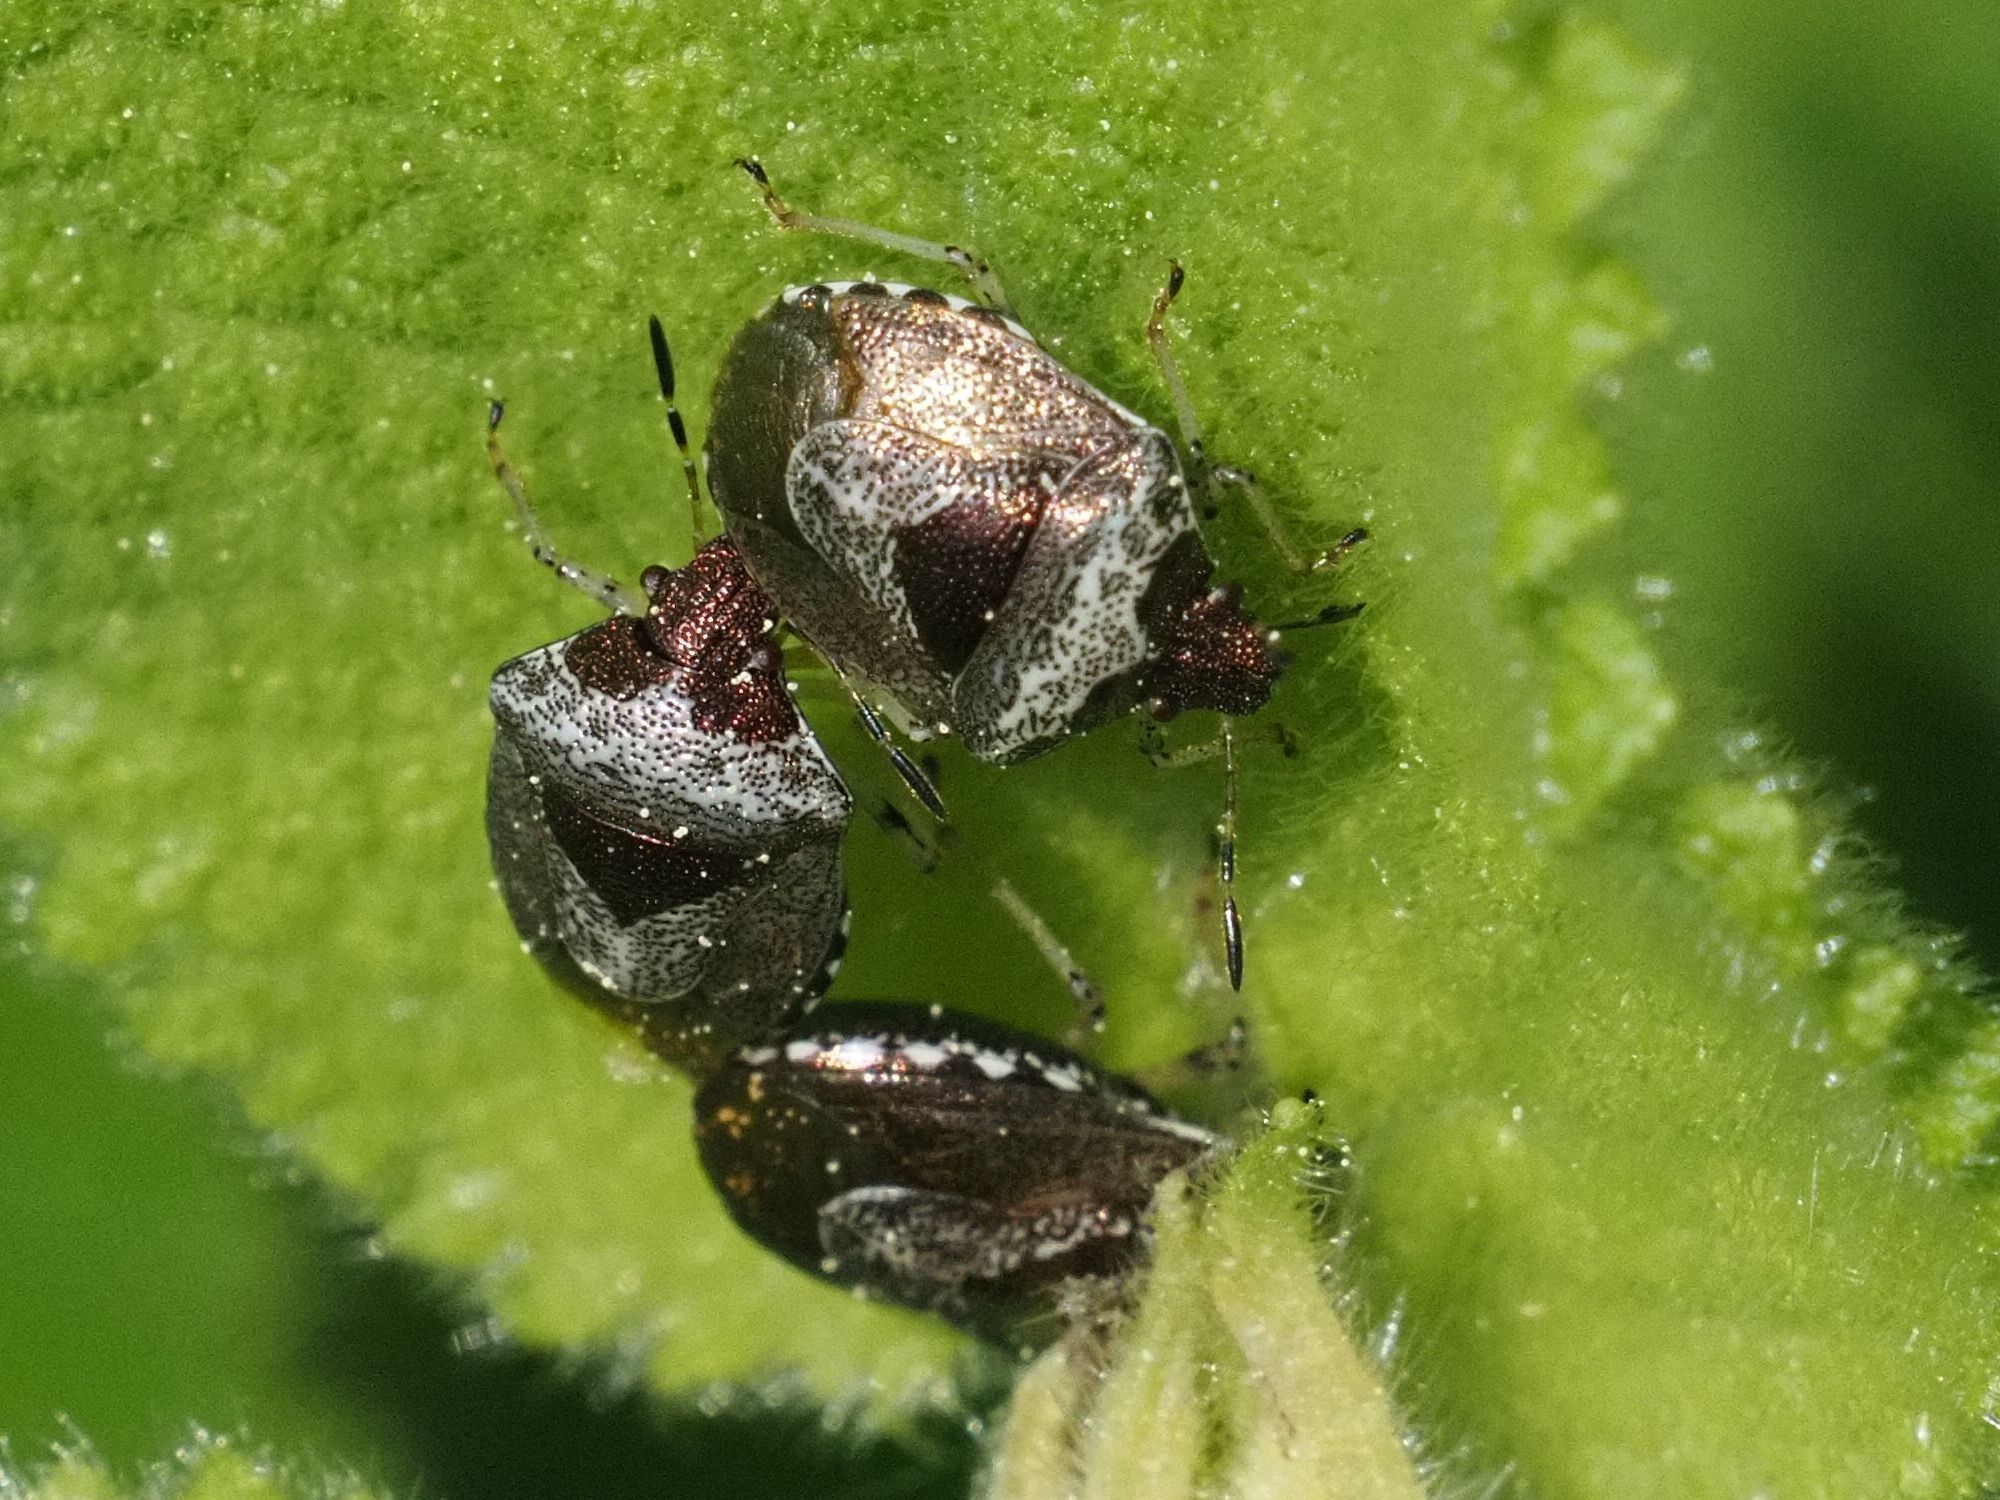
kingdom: Animalia
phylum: Arthropoda
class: Insecta
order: Hemiptera
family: Pentatomidae
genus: Eysarcoris
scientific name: Eysarcoris venustissimus
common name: Woundwort shieldbug
